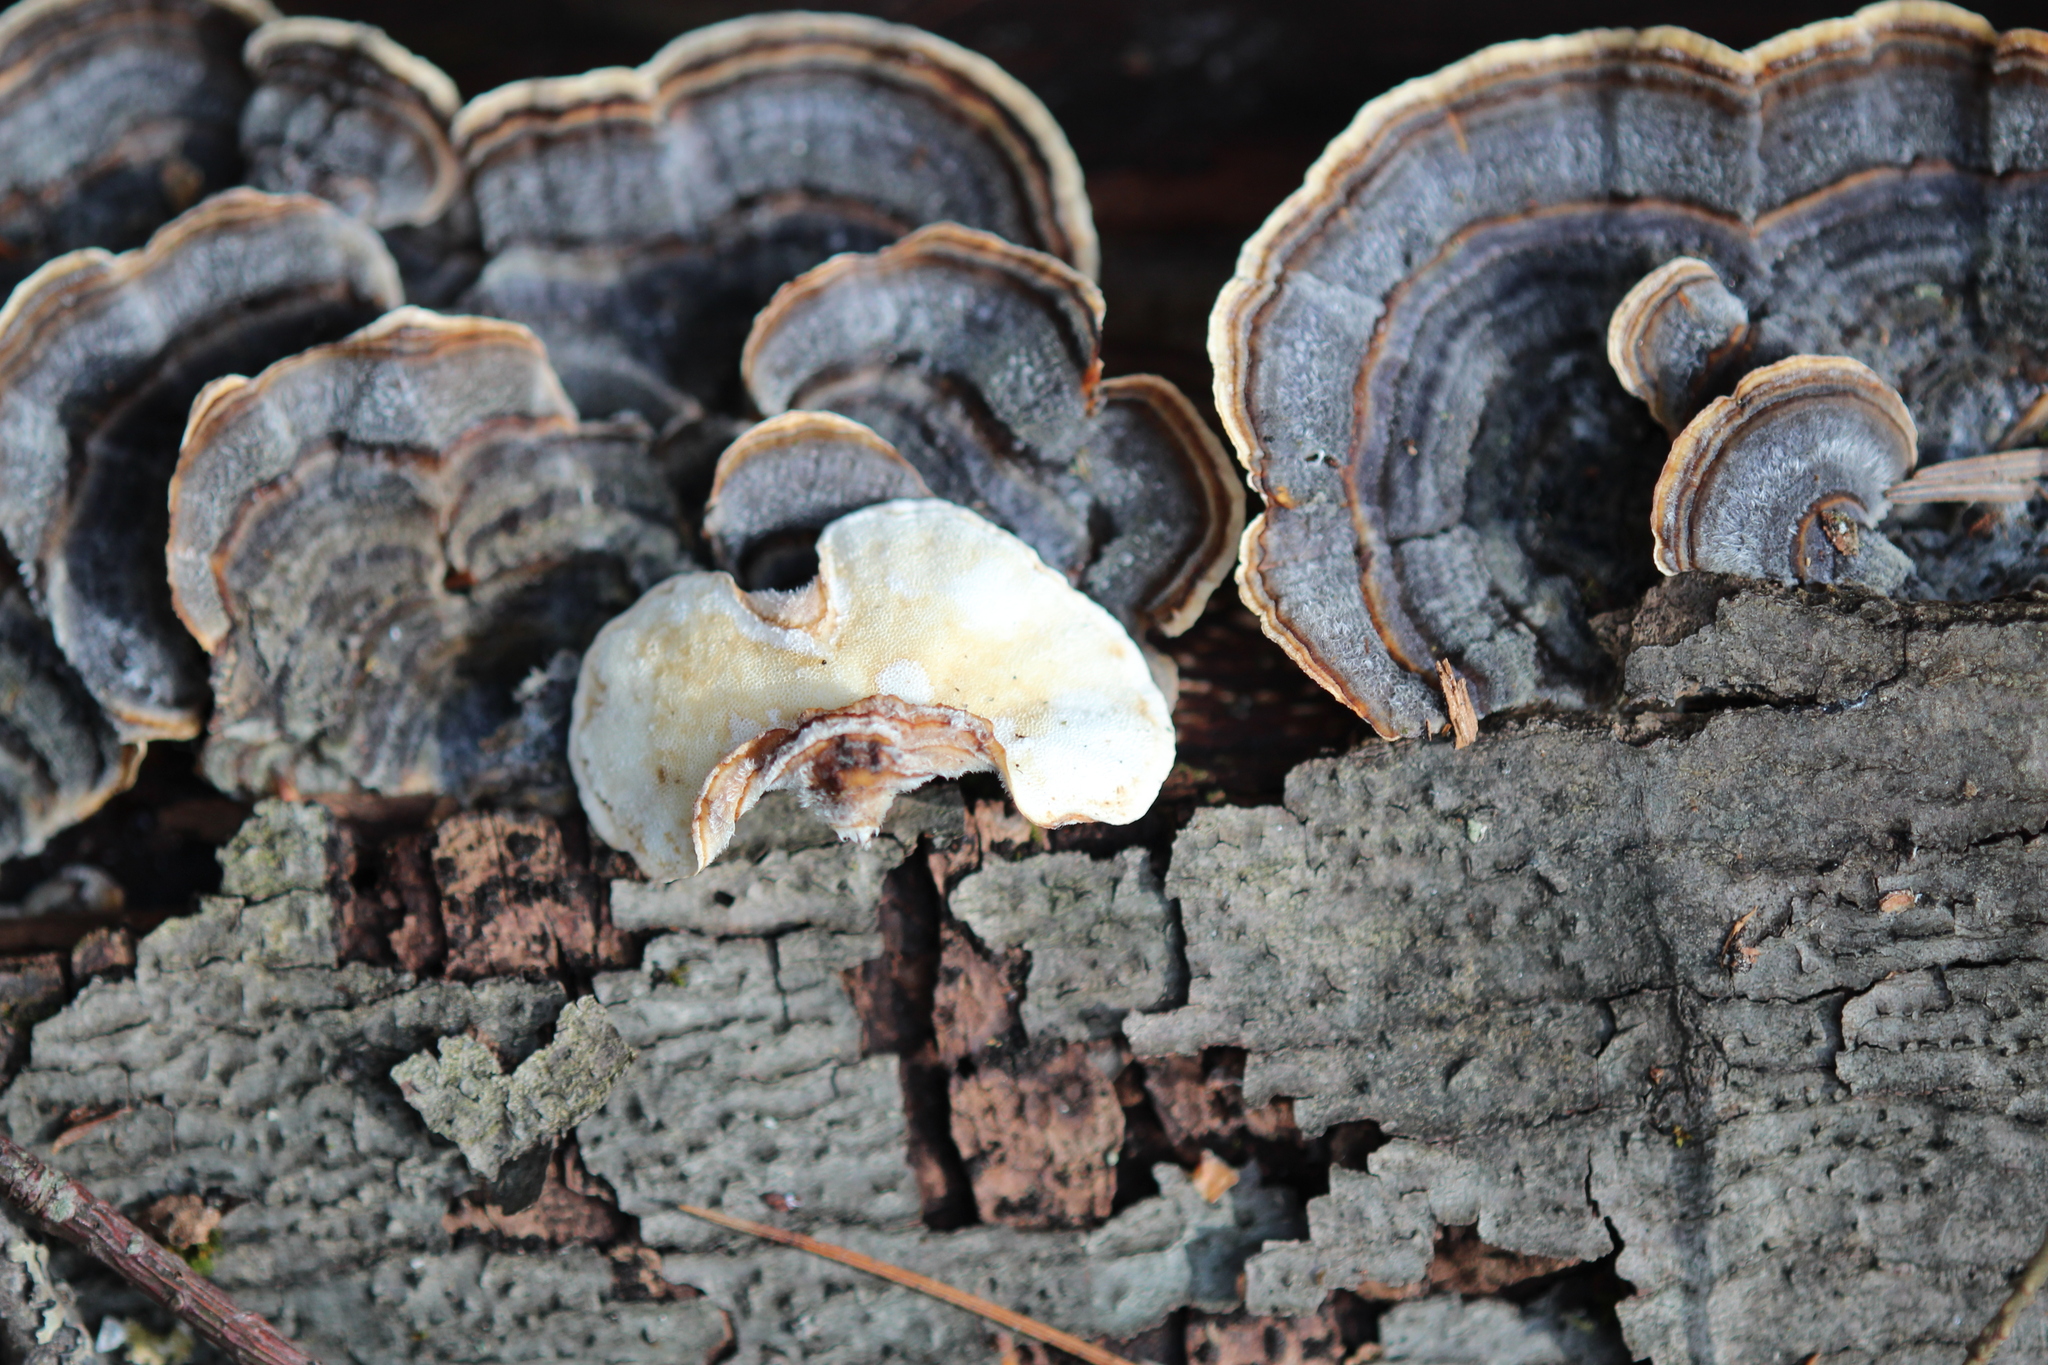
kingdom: Fungi
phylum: Basidiomycota
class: Agaricomycetes
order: Polyporales
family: Polyporaceae
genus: Trametes
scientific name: Trametes versicolor
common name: Turkeytail
